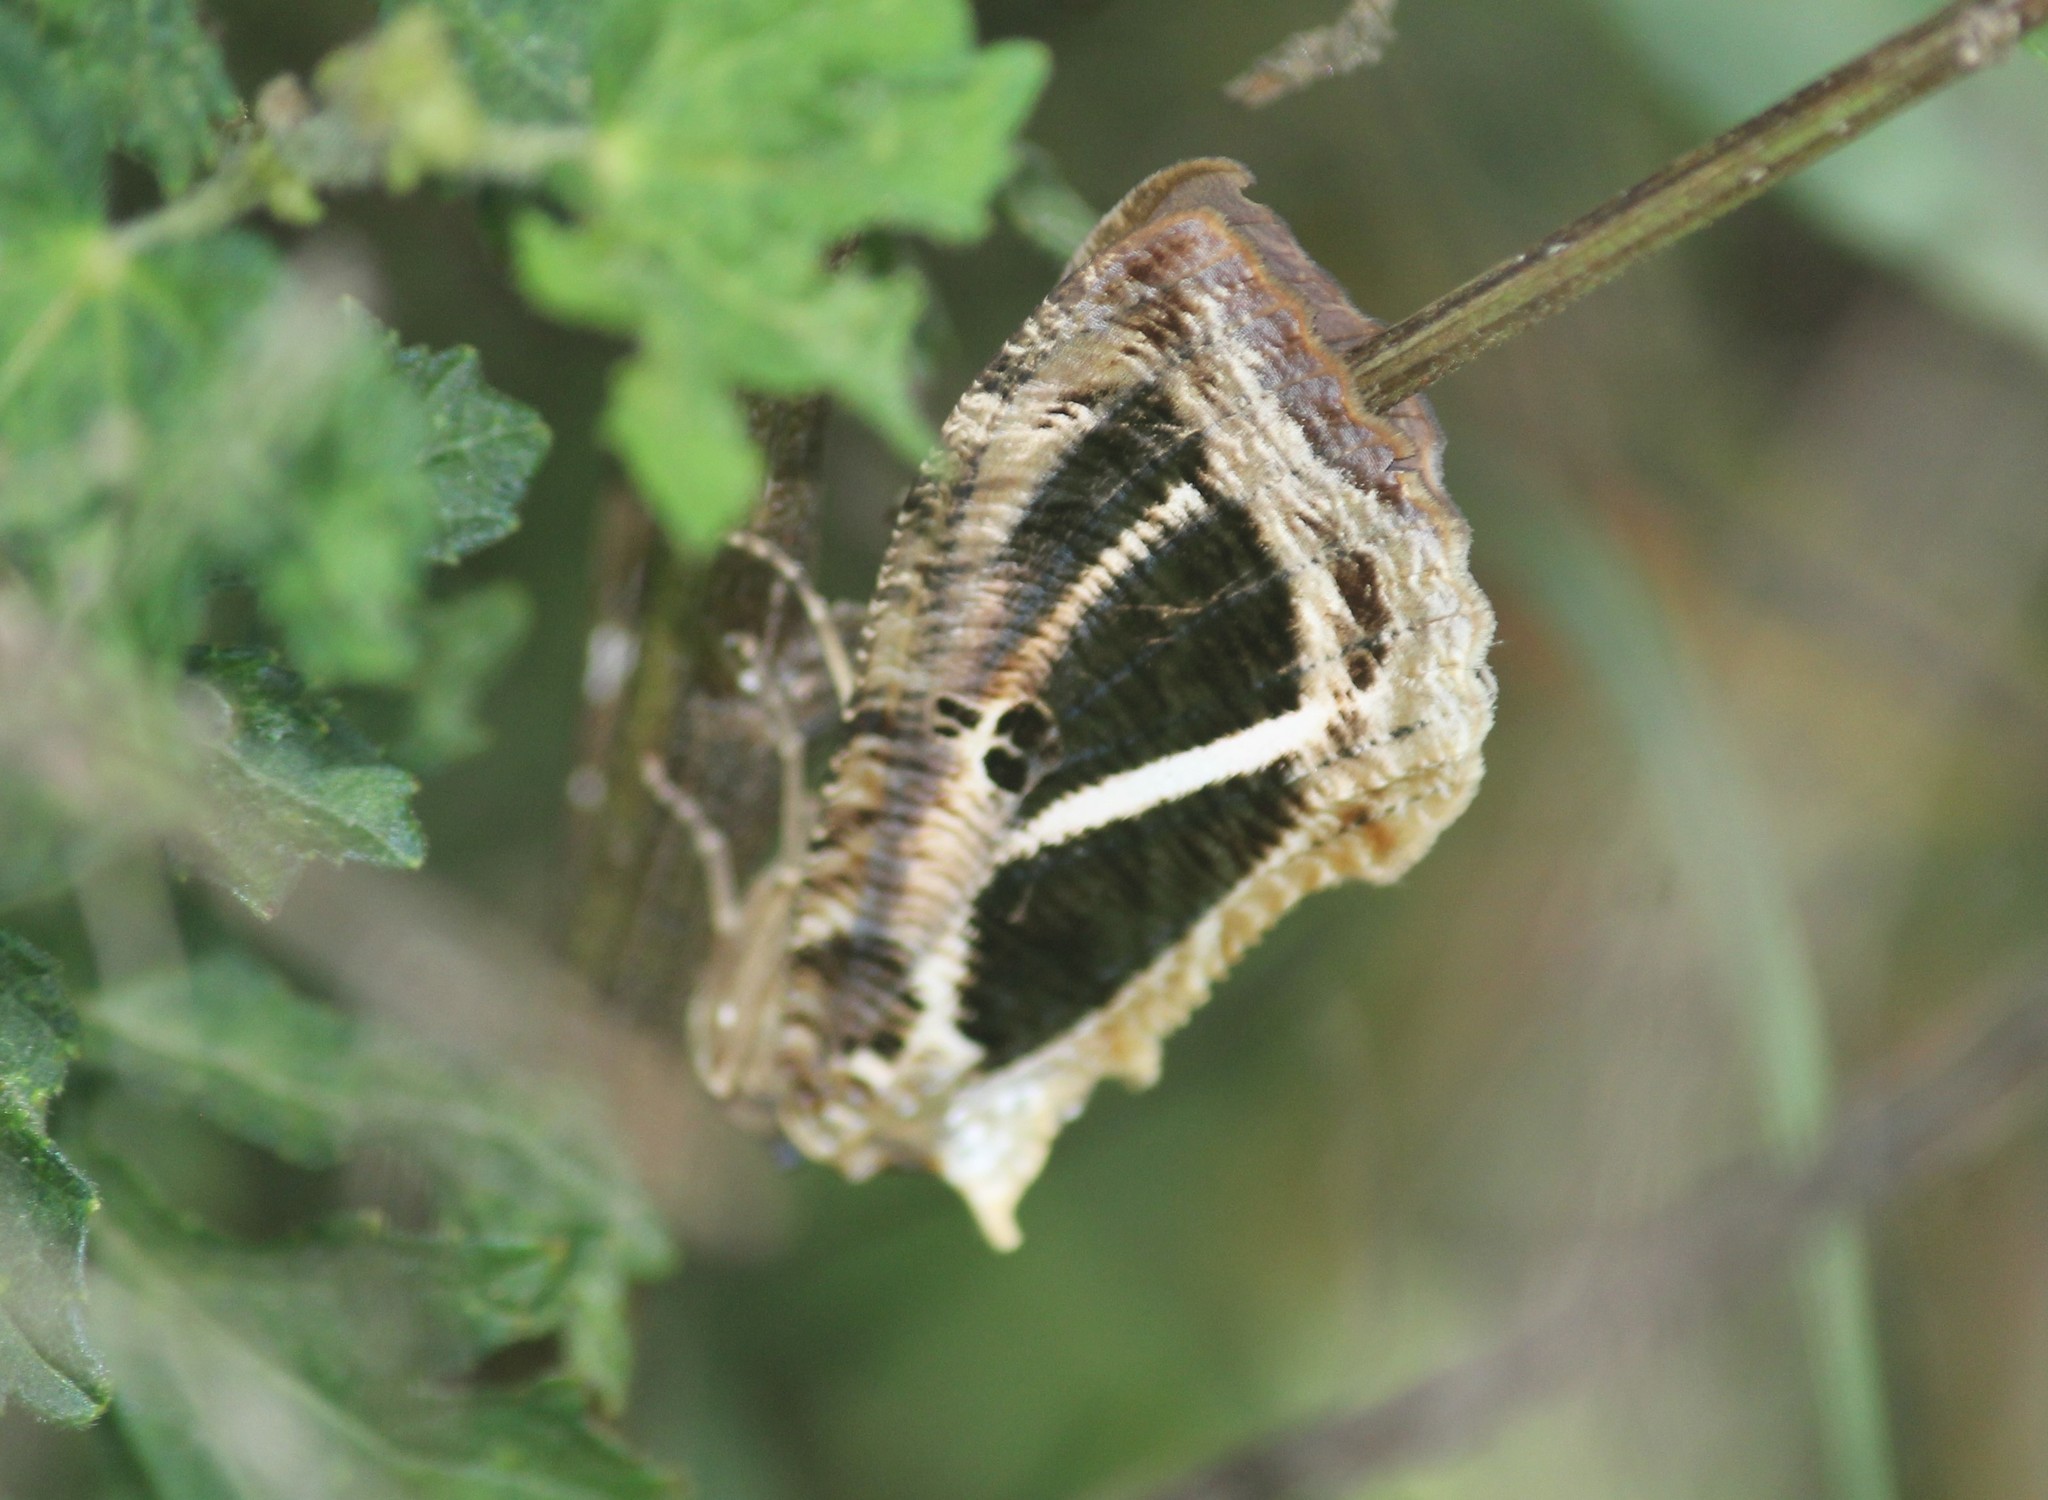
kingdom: Animalia
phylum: Arthropoda
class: Insecta
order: Lepidoptera
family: Erebidae
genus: Eudocima
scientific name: Eudocima materna
